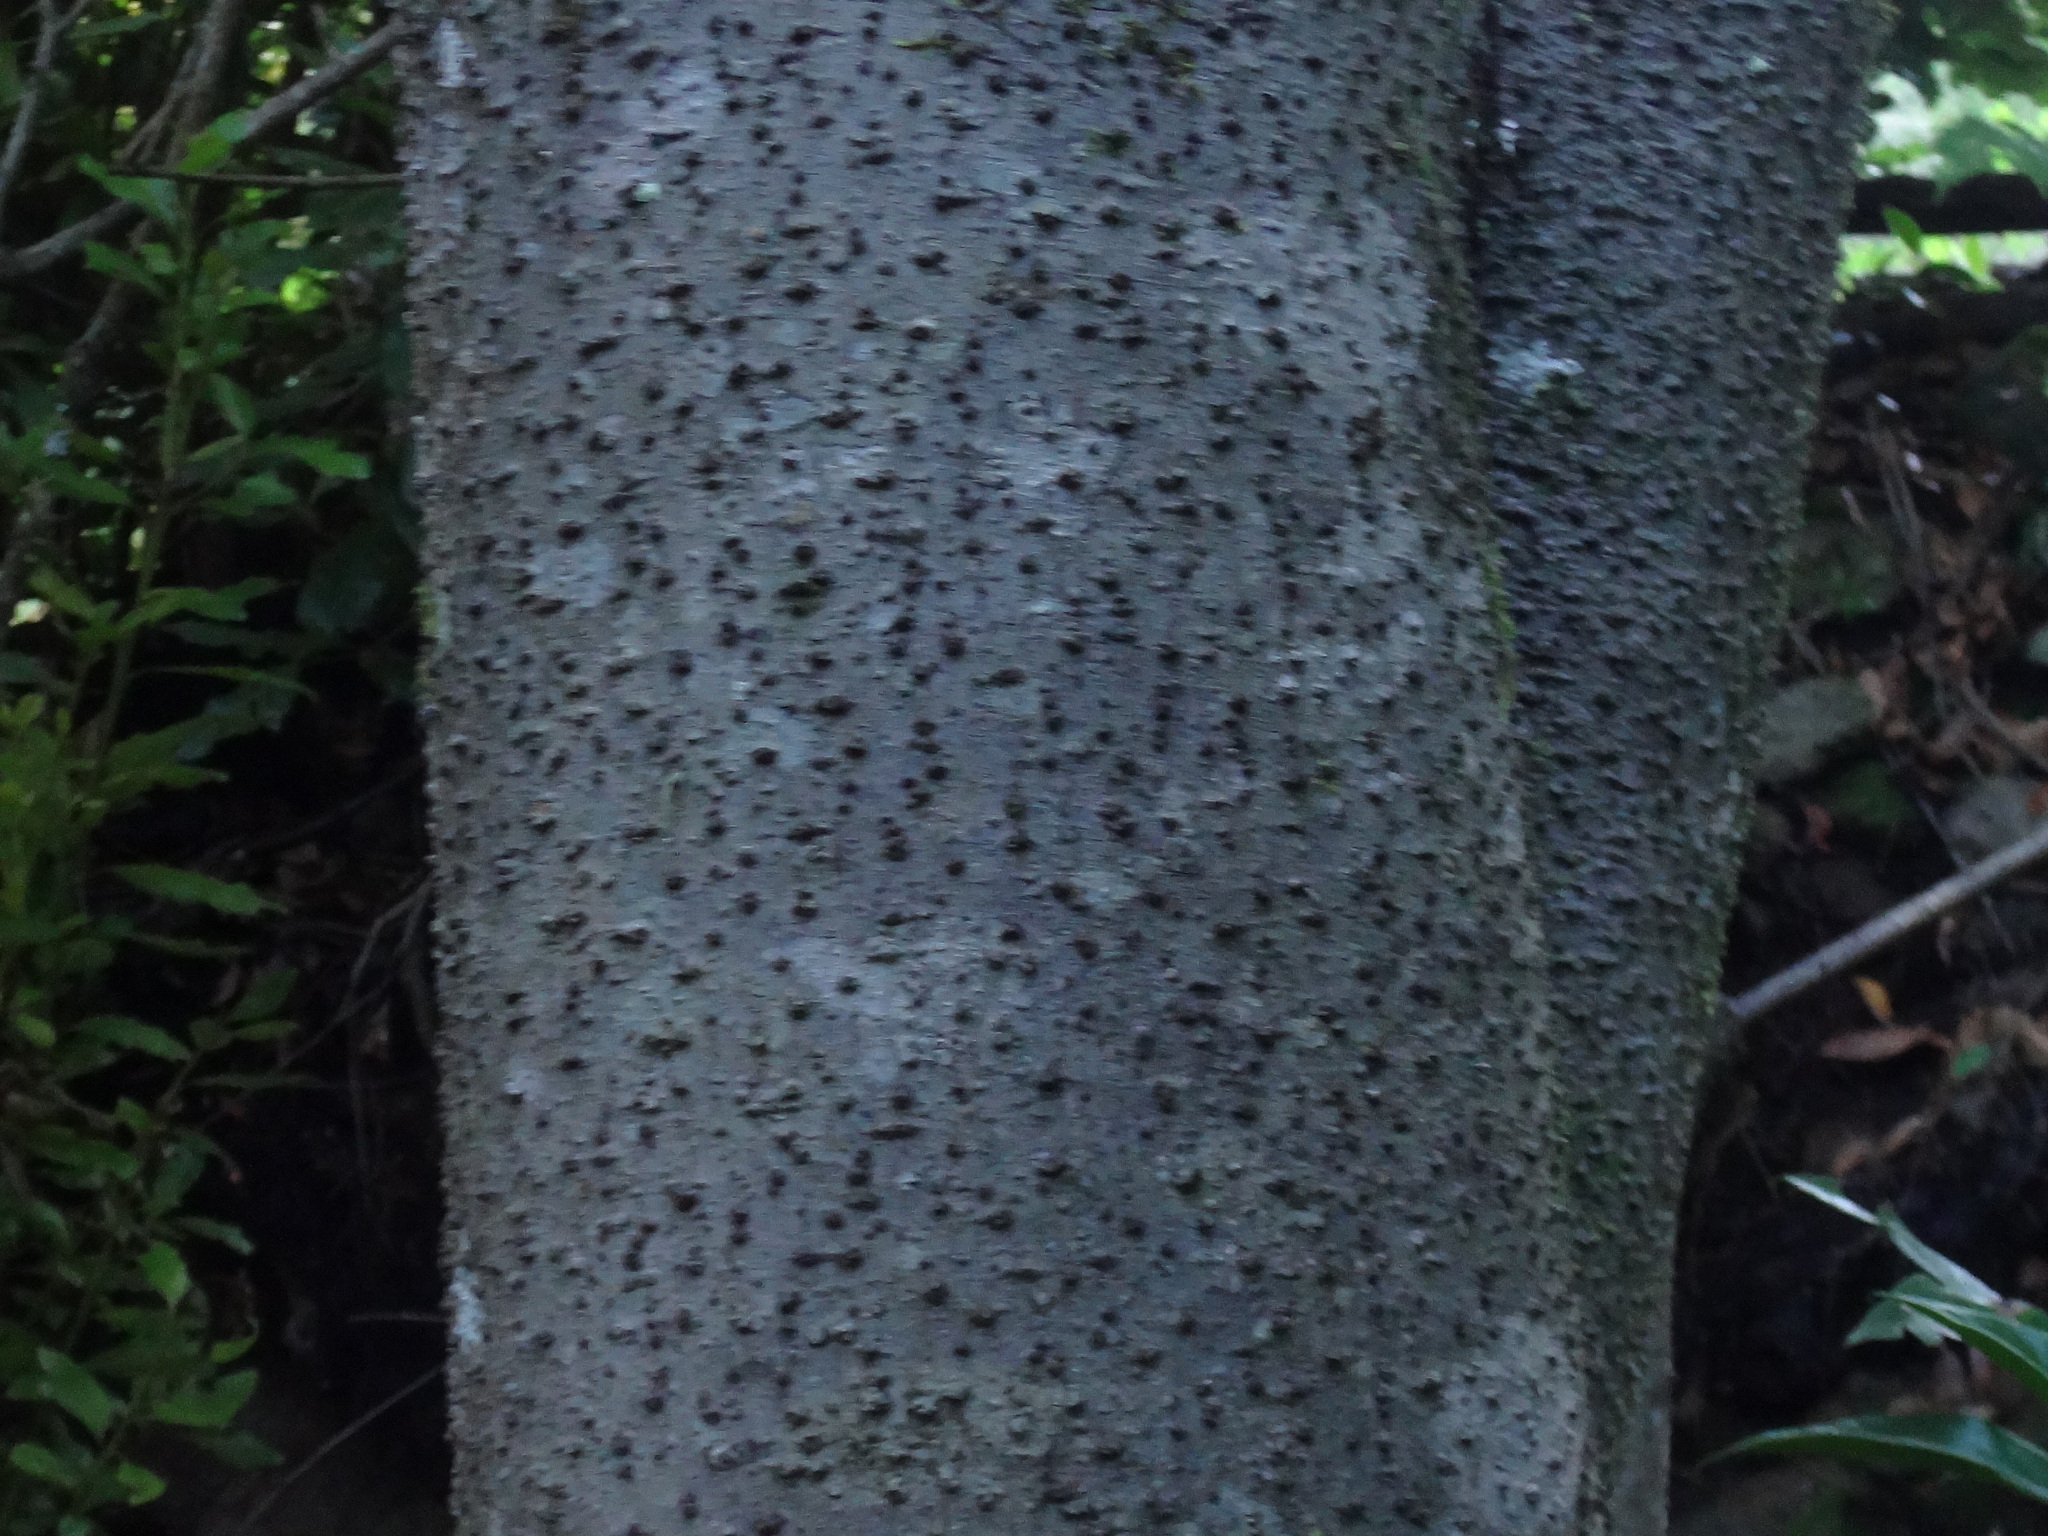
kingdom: Plantae
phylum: Tracheophyta
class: Magnoliopsida
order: Laurales
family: Lauraceae
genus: Laurus
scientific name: Laurus novocanariensis
